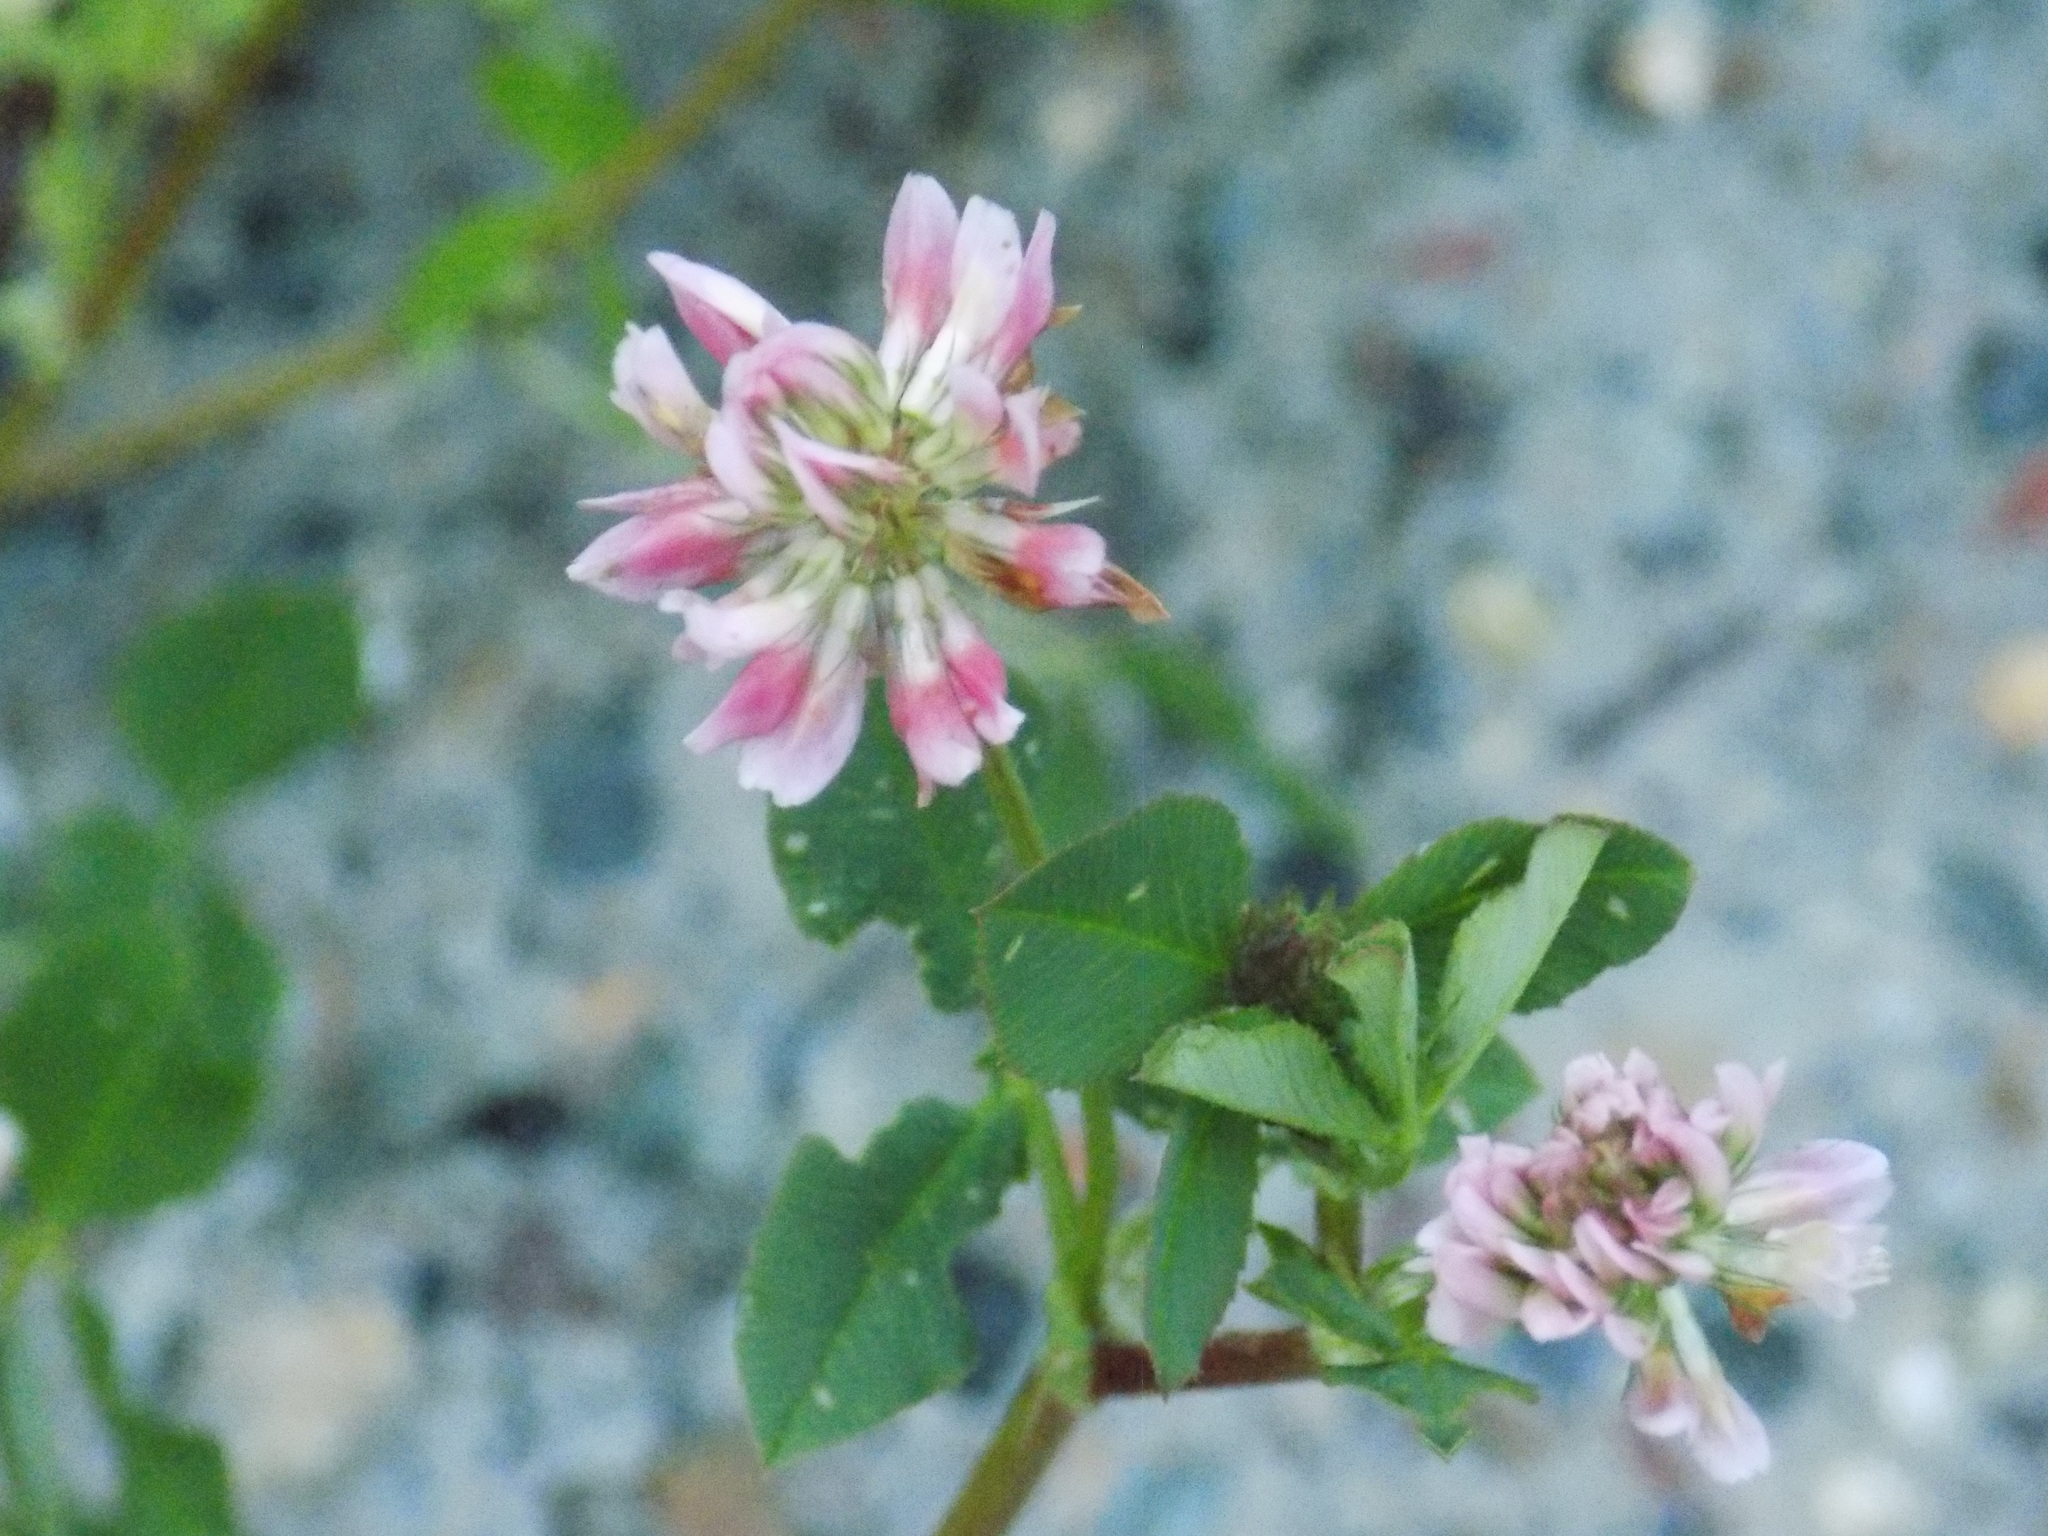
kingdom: Plantae
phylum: Tracheophyta
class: Magnoliopsida
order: Fabales
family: Fabaceae
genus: Trifolium
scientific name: Trifolium hybridum
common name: Alsike clover
